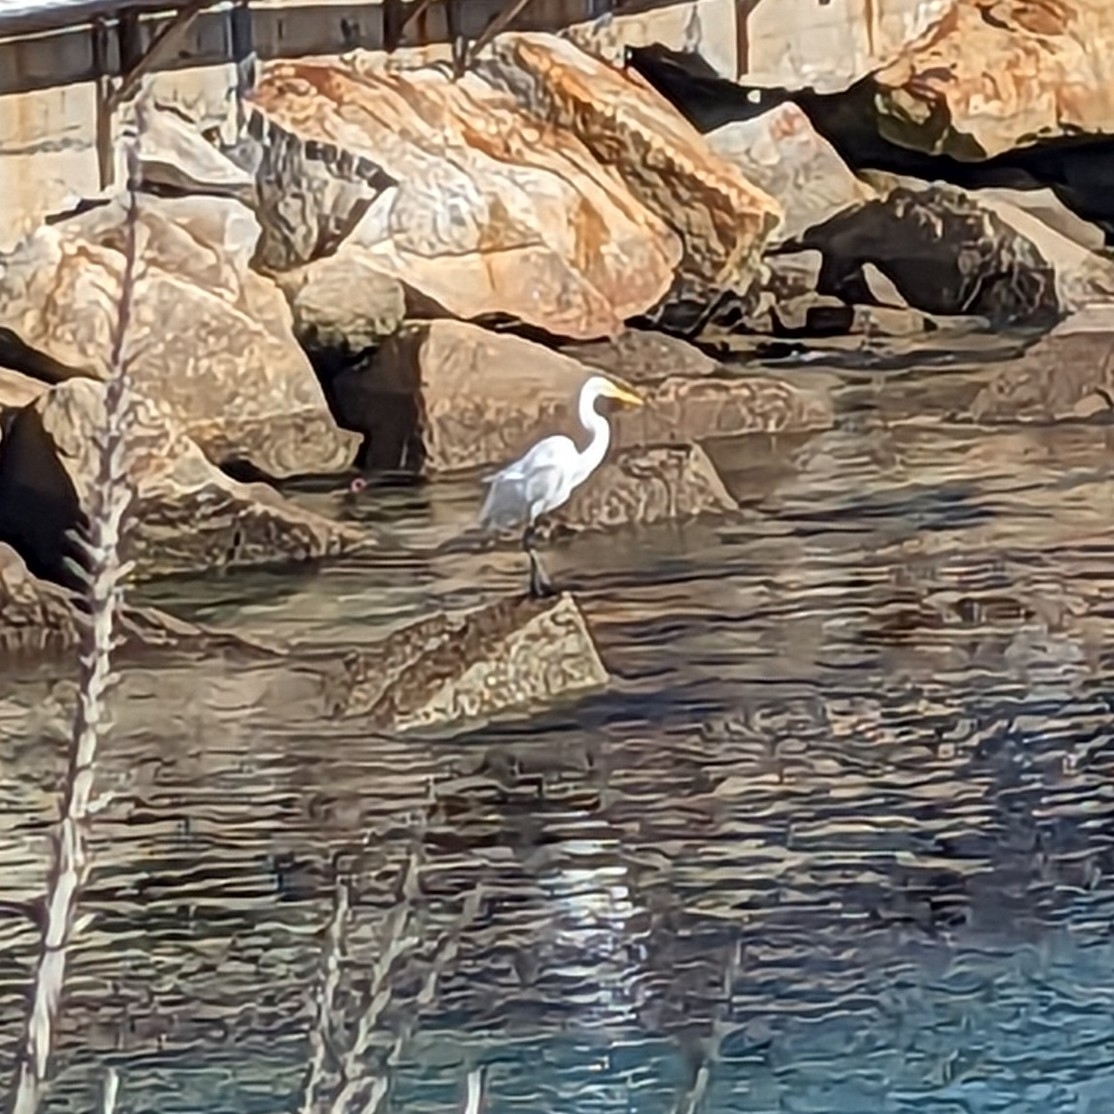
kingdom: Animalia
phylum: Chordata
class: Aves
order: Pelecaniformes
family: Ardeidae
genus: Ardea
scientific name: Ardea alba
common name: Great egret
